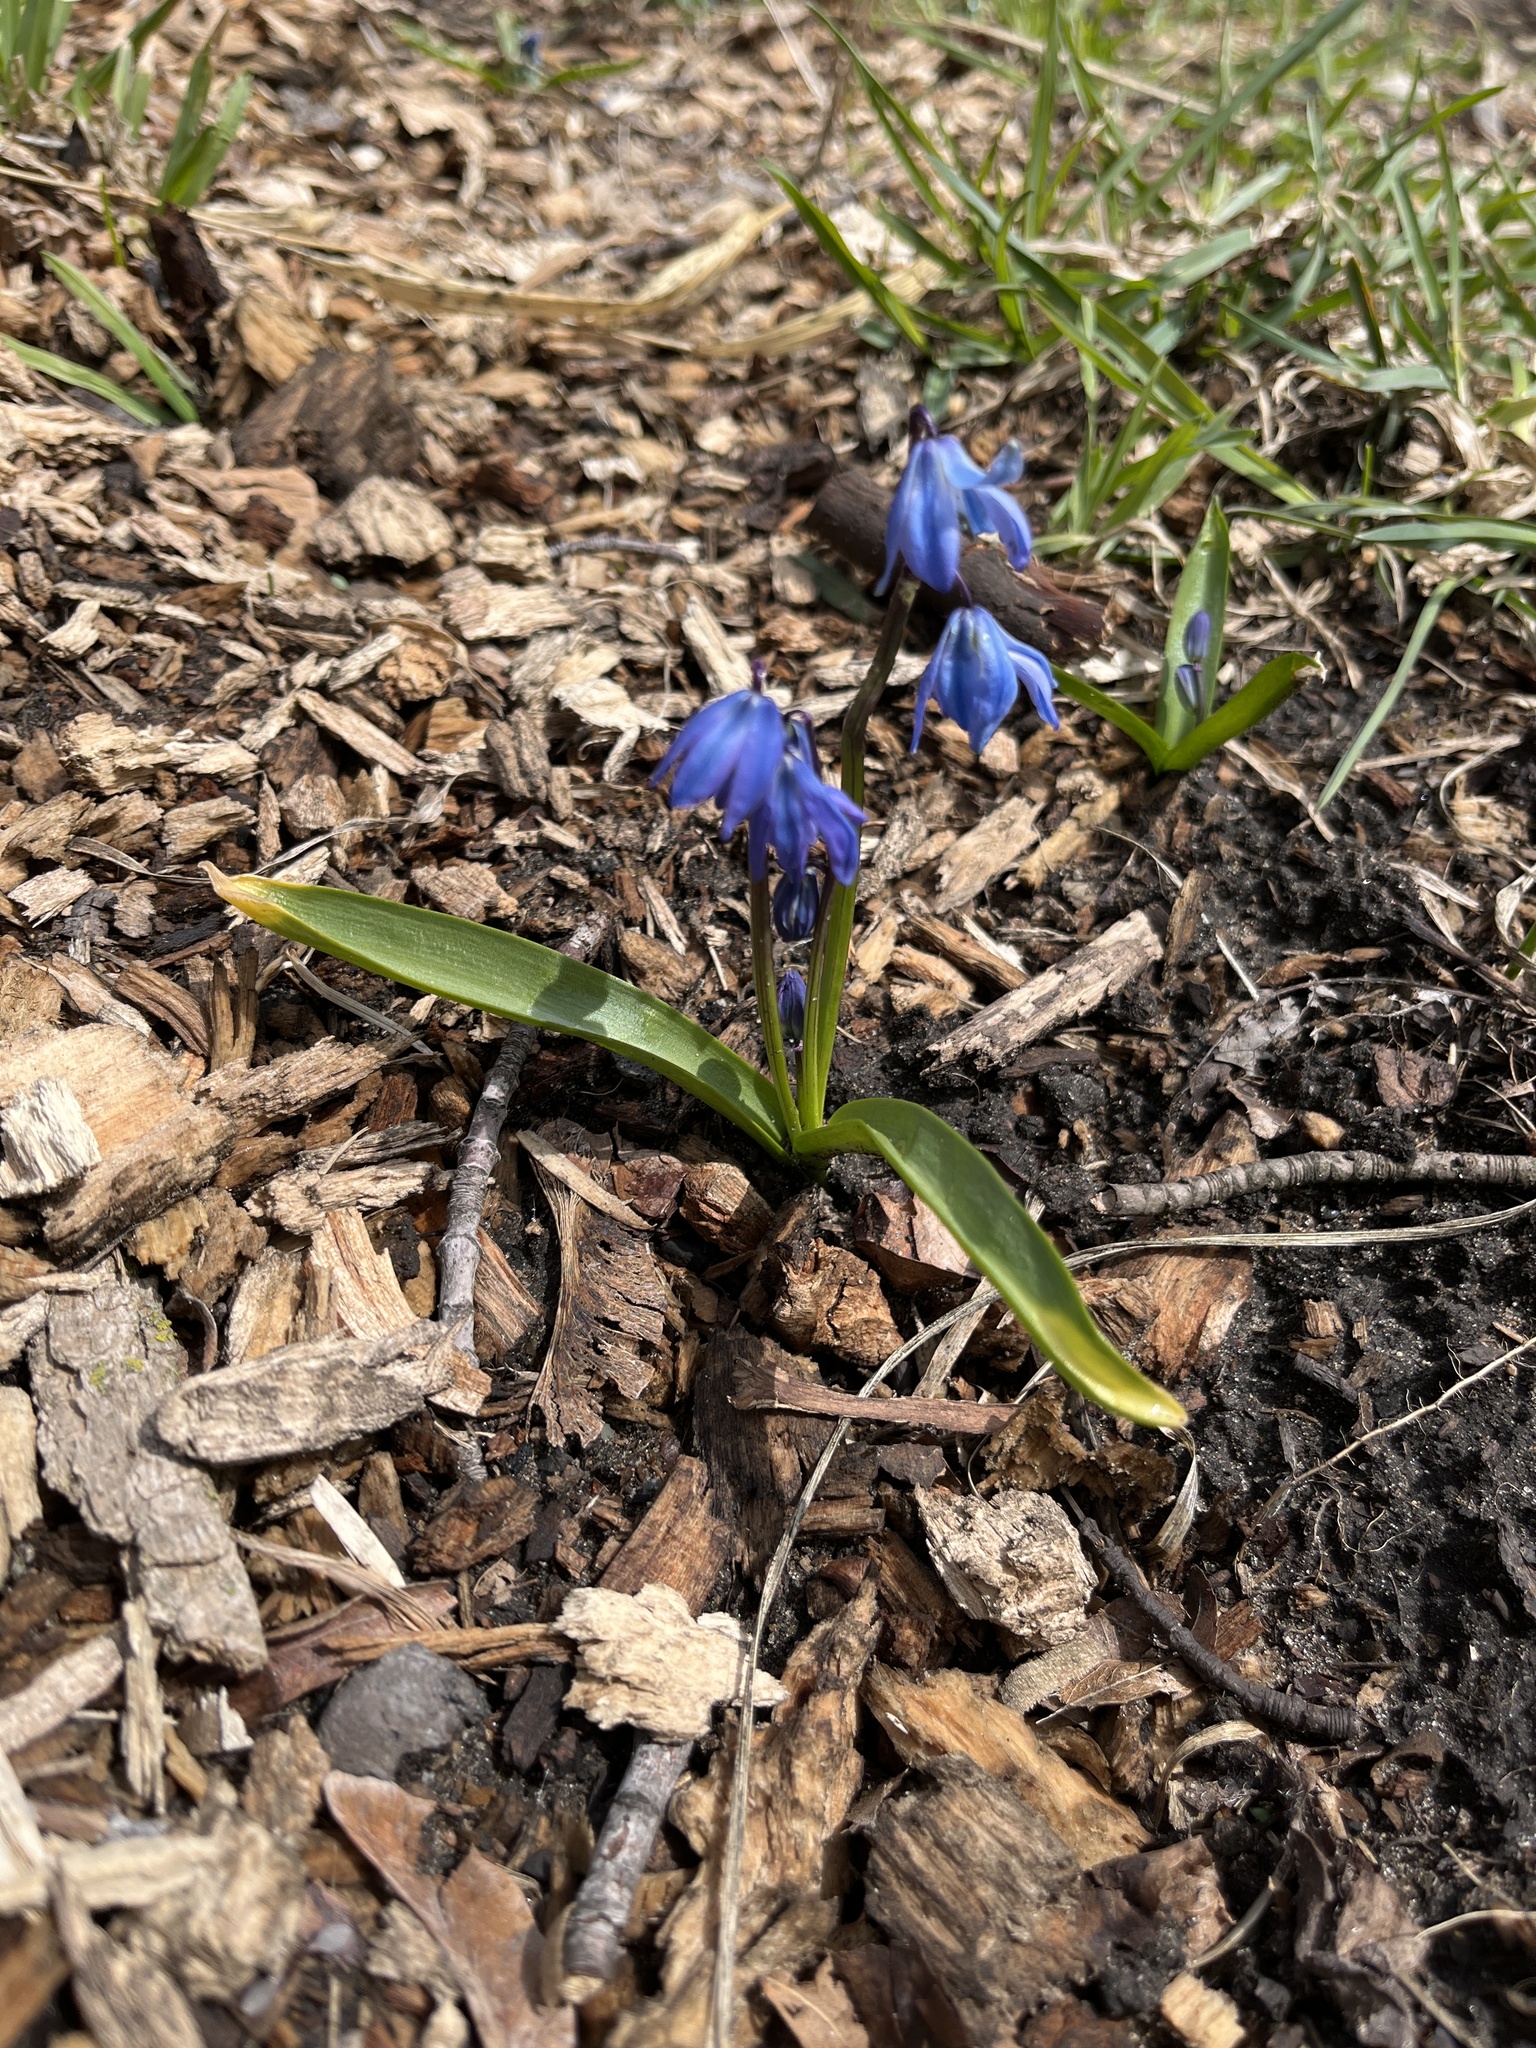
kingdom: Plantae
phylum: Tracheophyta
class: Liliopsida
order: Asparagales
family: Asparagaceae
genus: Scilla
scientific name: Scilla siberica
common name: Siberian squill
